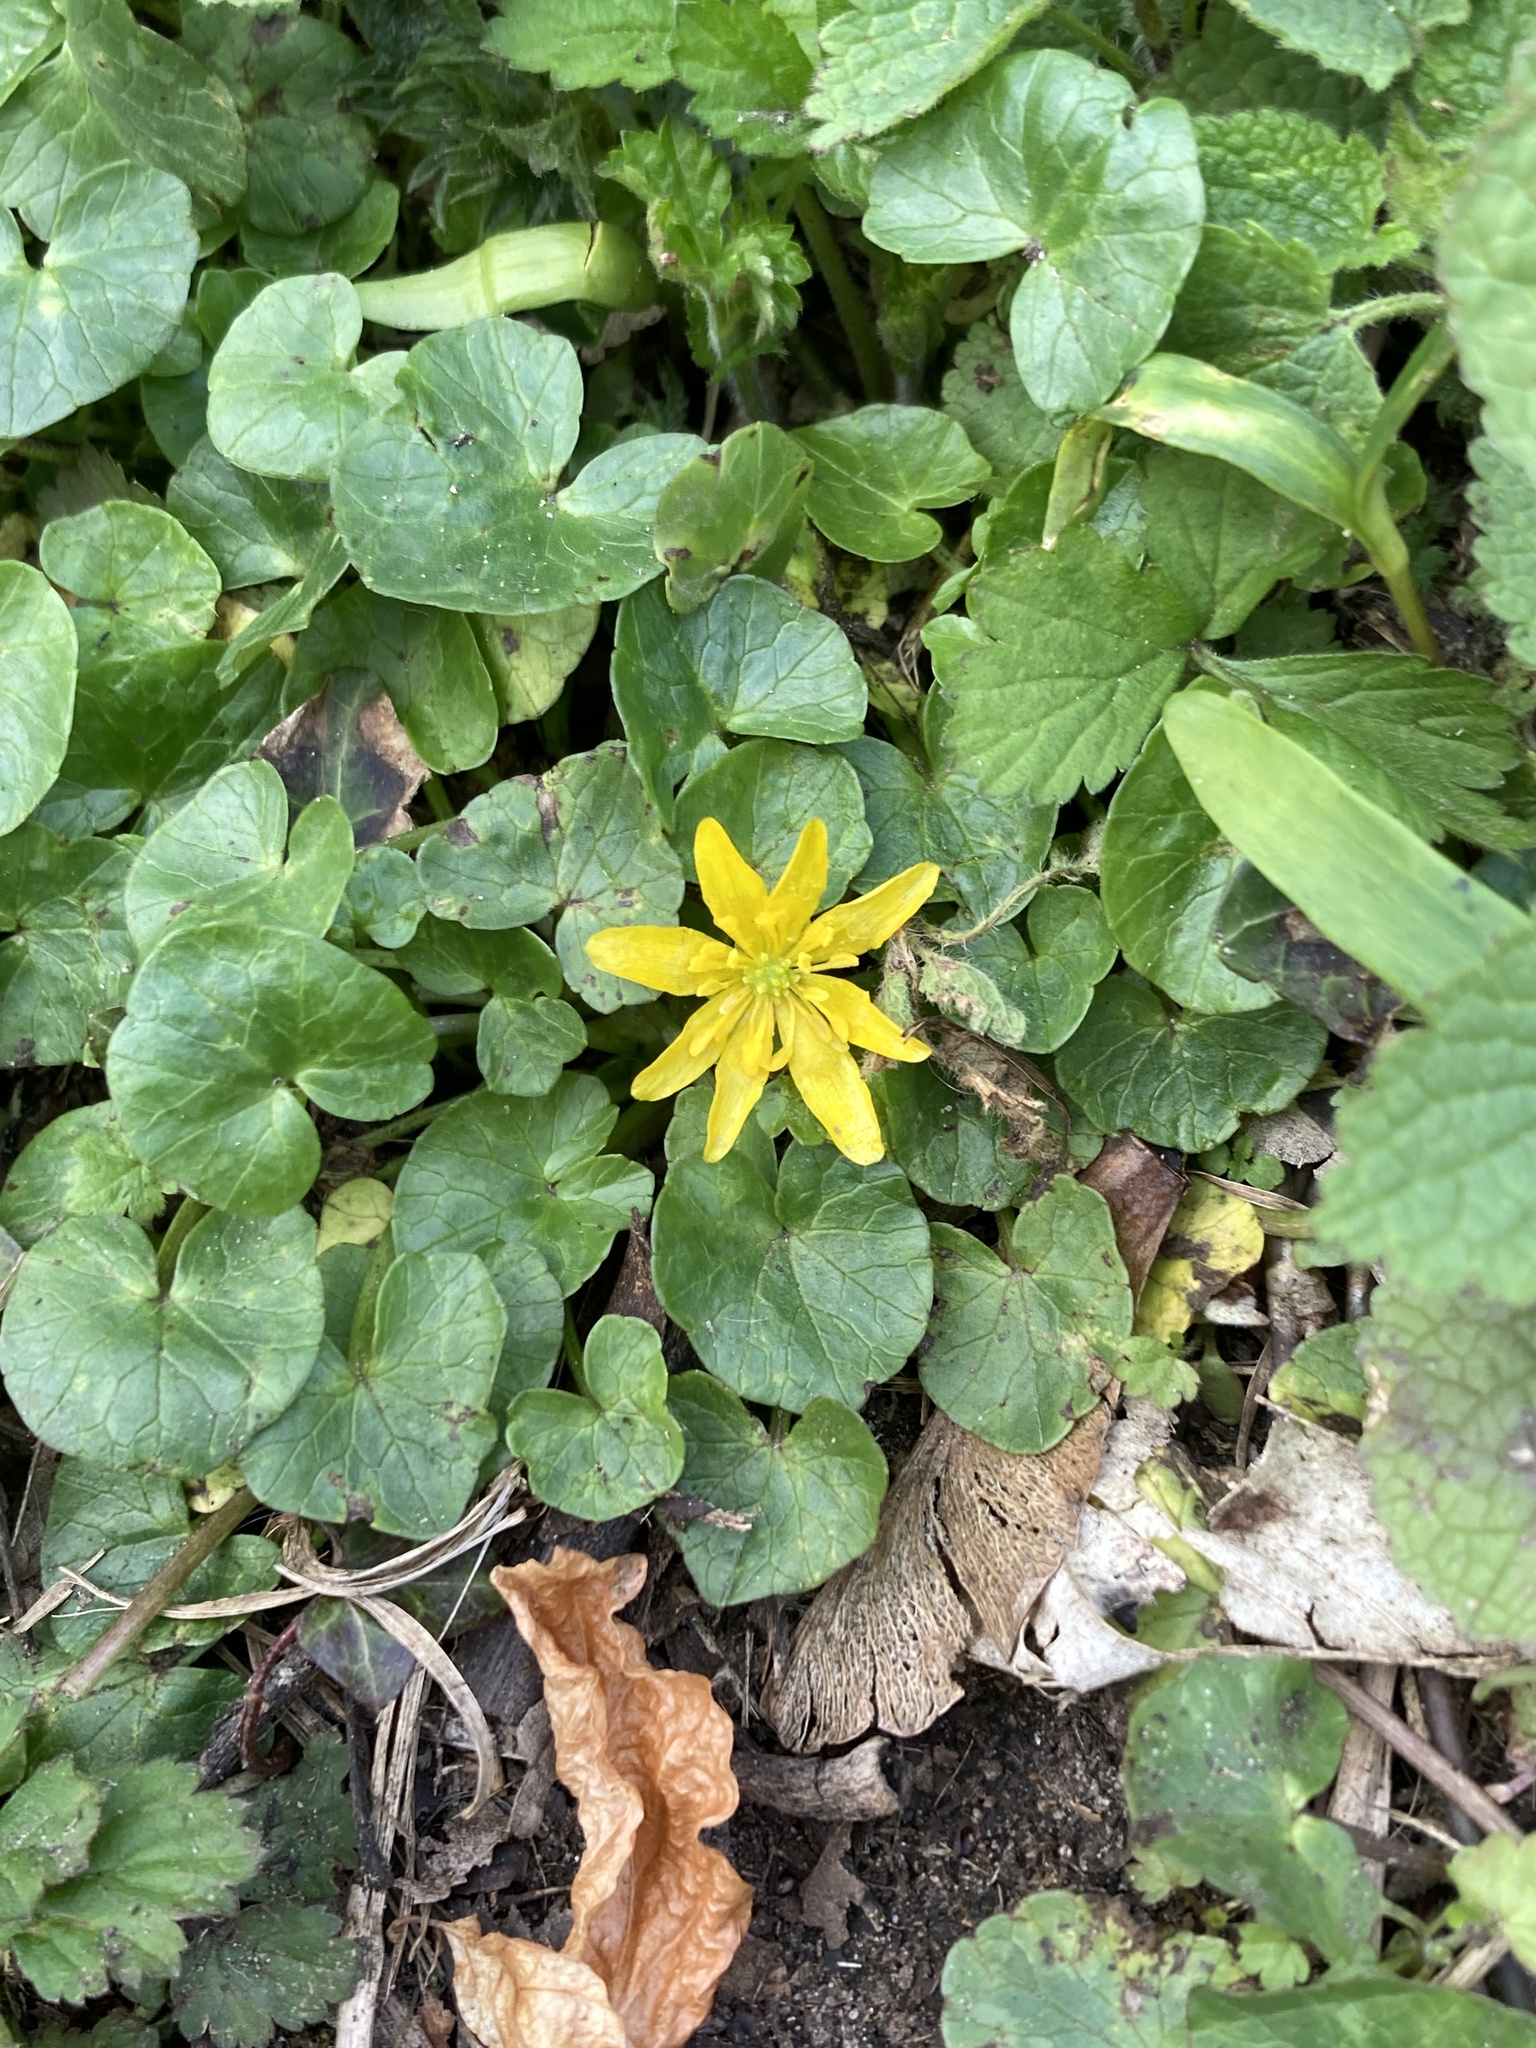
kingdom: Plantae
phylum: Tracheophyta
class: Magnoliopsida
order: Ranunculales
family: Ranunculaceae
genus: Ficaria
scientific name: Ficaria verna
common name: Lesser celandine
